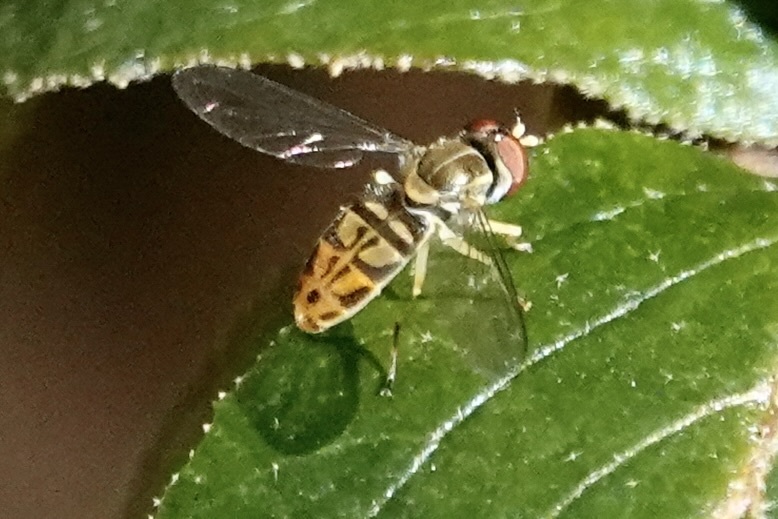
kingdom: Animalia
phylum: Arthropoda
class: Insecta
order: Diptera
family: Syrphidae
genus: Toxomerus
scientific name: Toxomerus marginatus
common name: Syrphid fly
